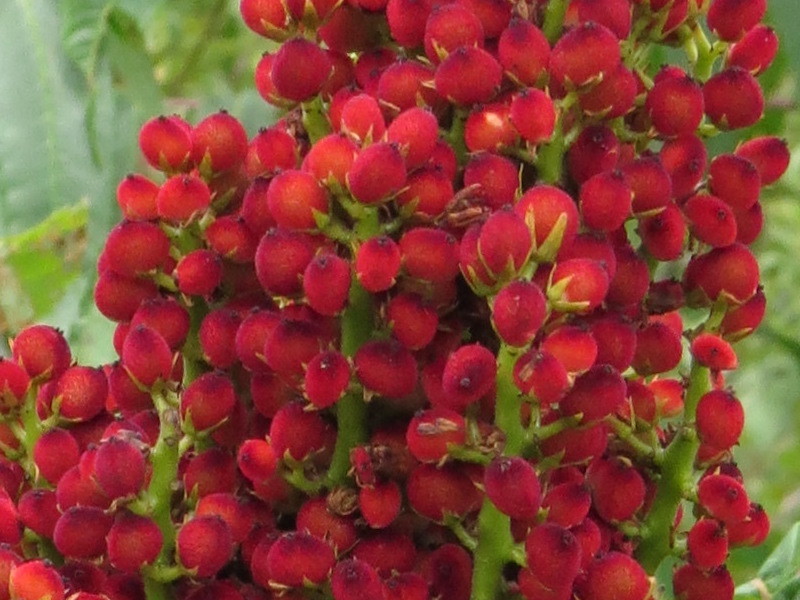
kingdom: Plantae
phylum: Tracheophyta
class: Magnoliopsida
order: Sapindales
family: Anacardiaceae
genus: Rhus
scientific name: Rhus glabra
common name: Scarlet sumac
